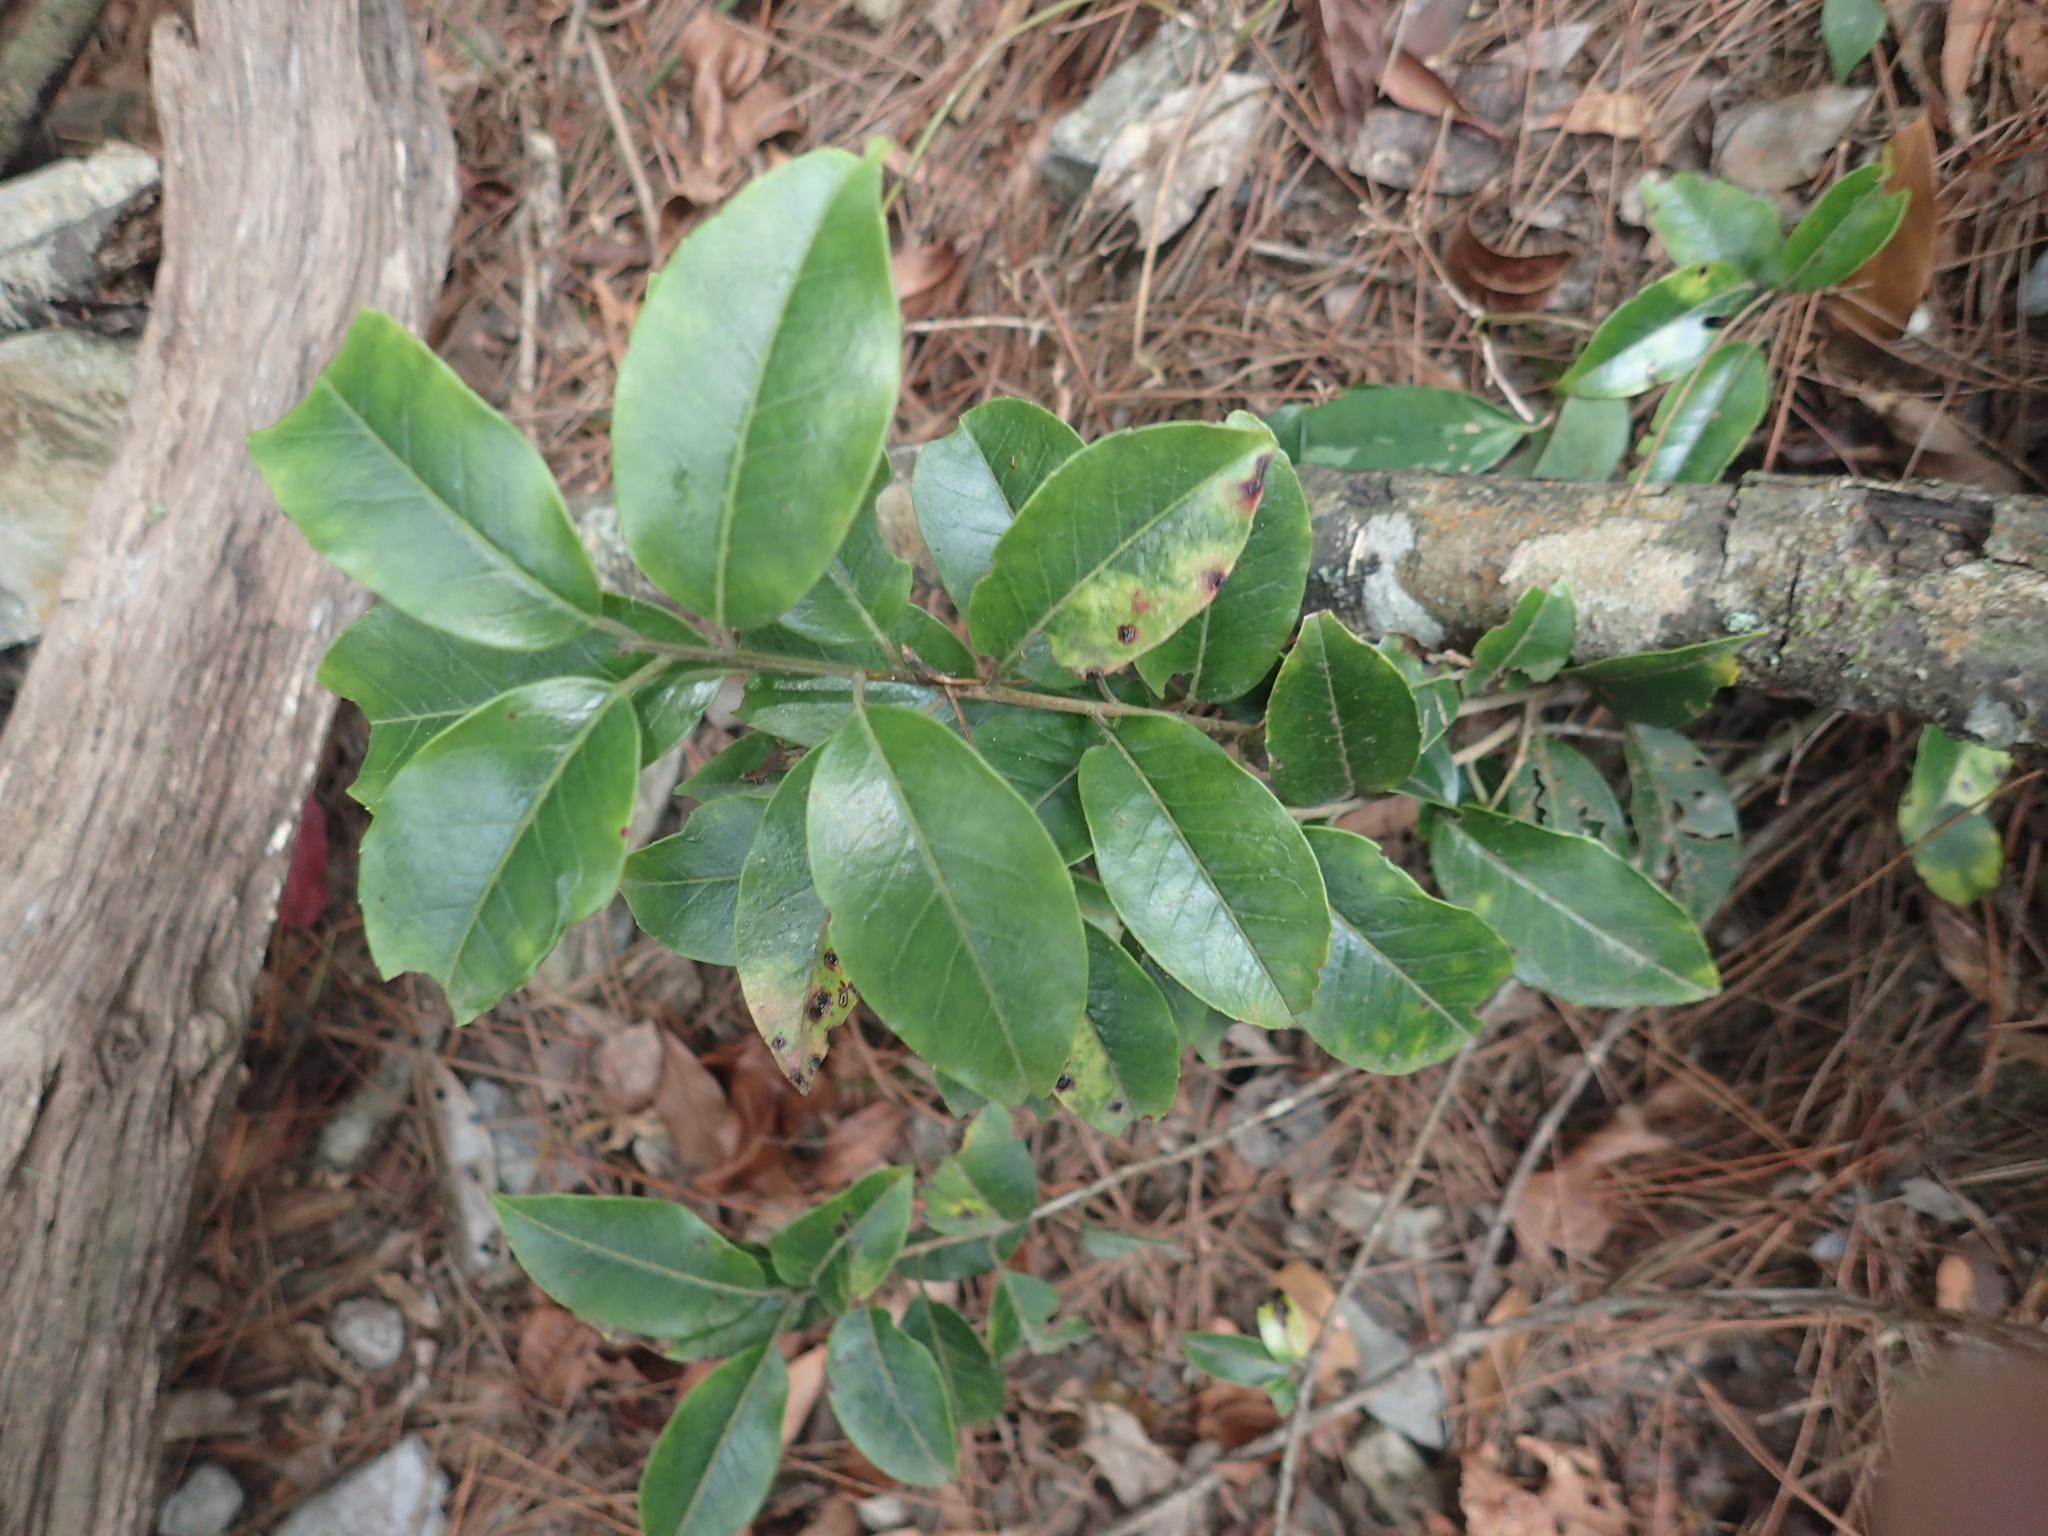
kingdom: Plantae
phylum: Tracheophyta
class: Magnoliopsida
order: Aquifoliales
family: Aquifoliaceae
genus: Ilex
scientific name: Ilex pedunculosa
